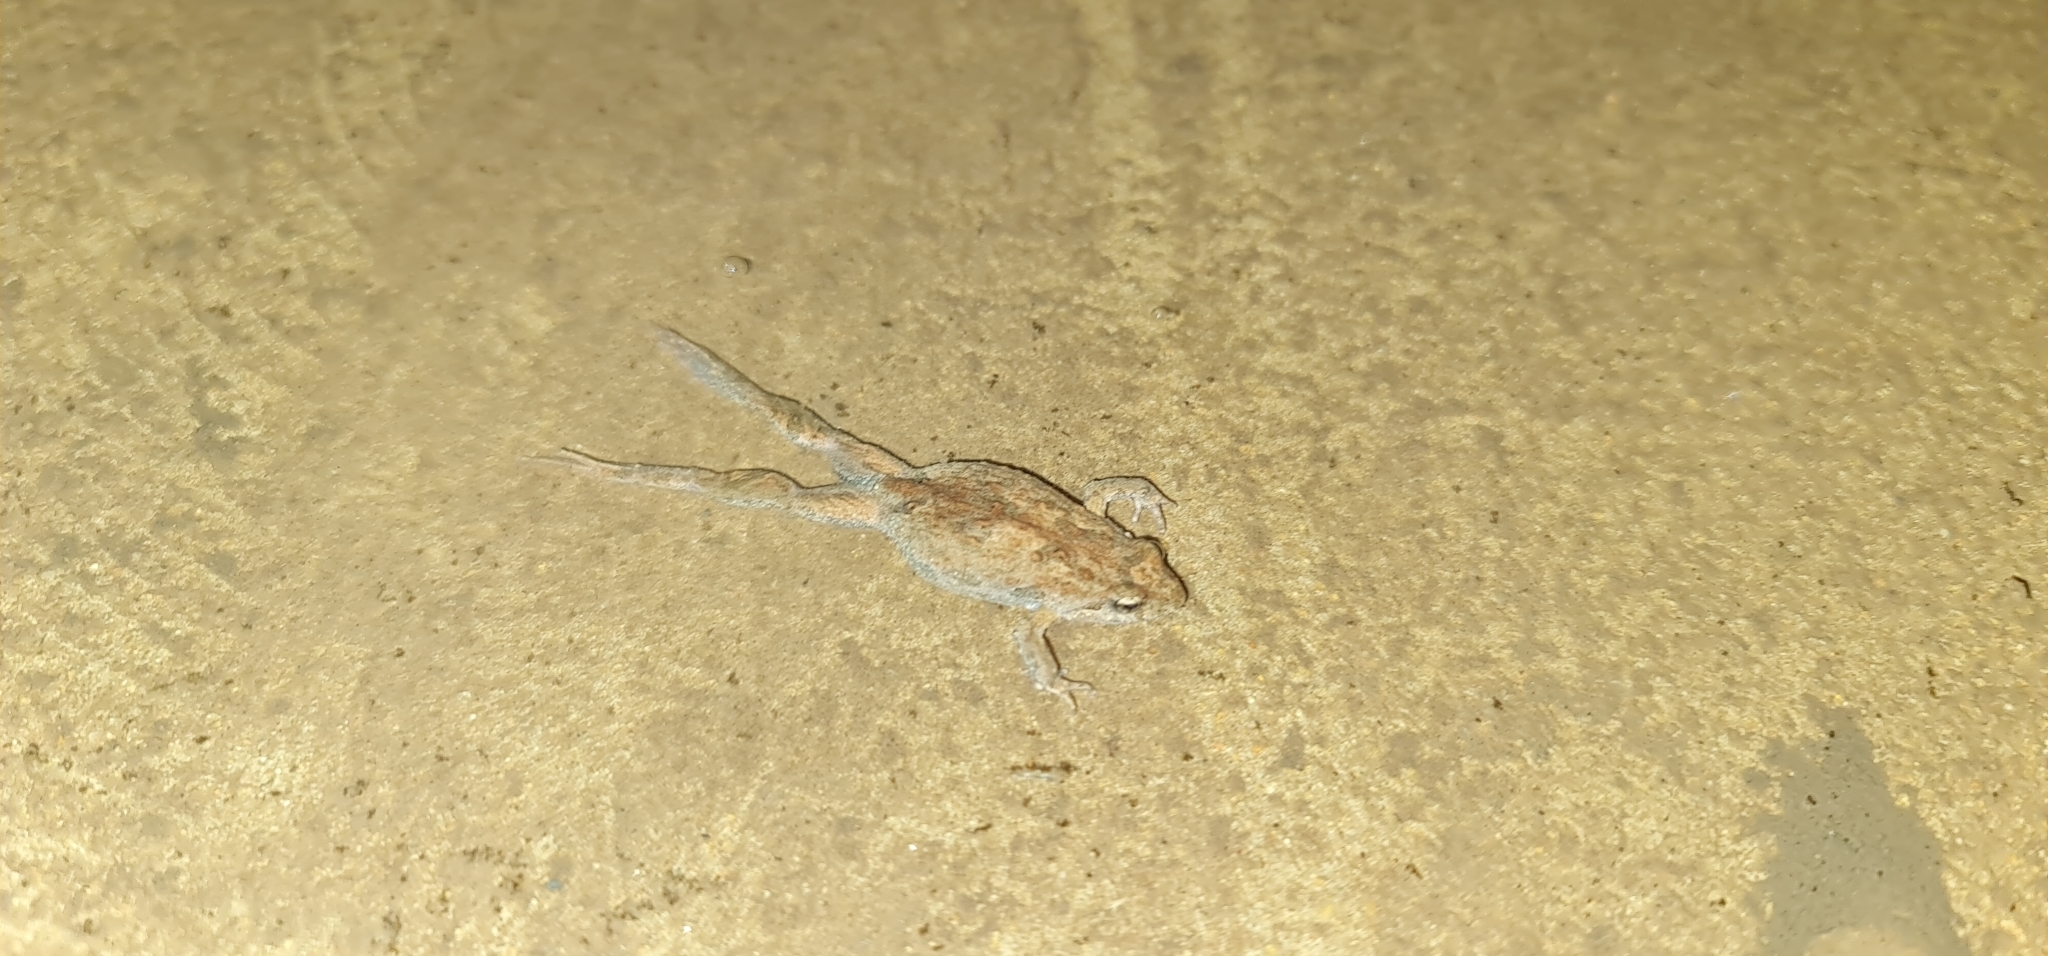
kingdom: Animalia
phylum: Chordata
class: Amphibia
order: Anura
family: Myobatrachidae
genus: Crinia
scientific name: Crinia signifera
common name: Brown froglet
